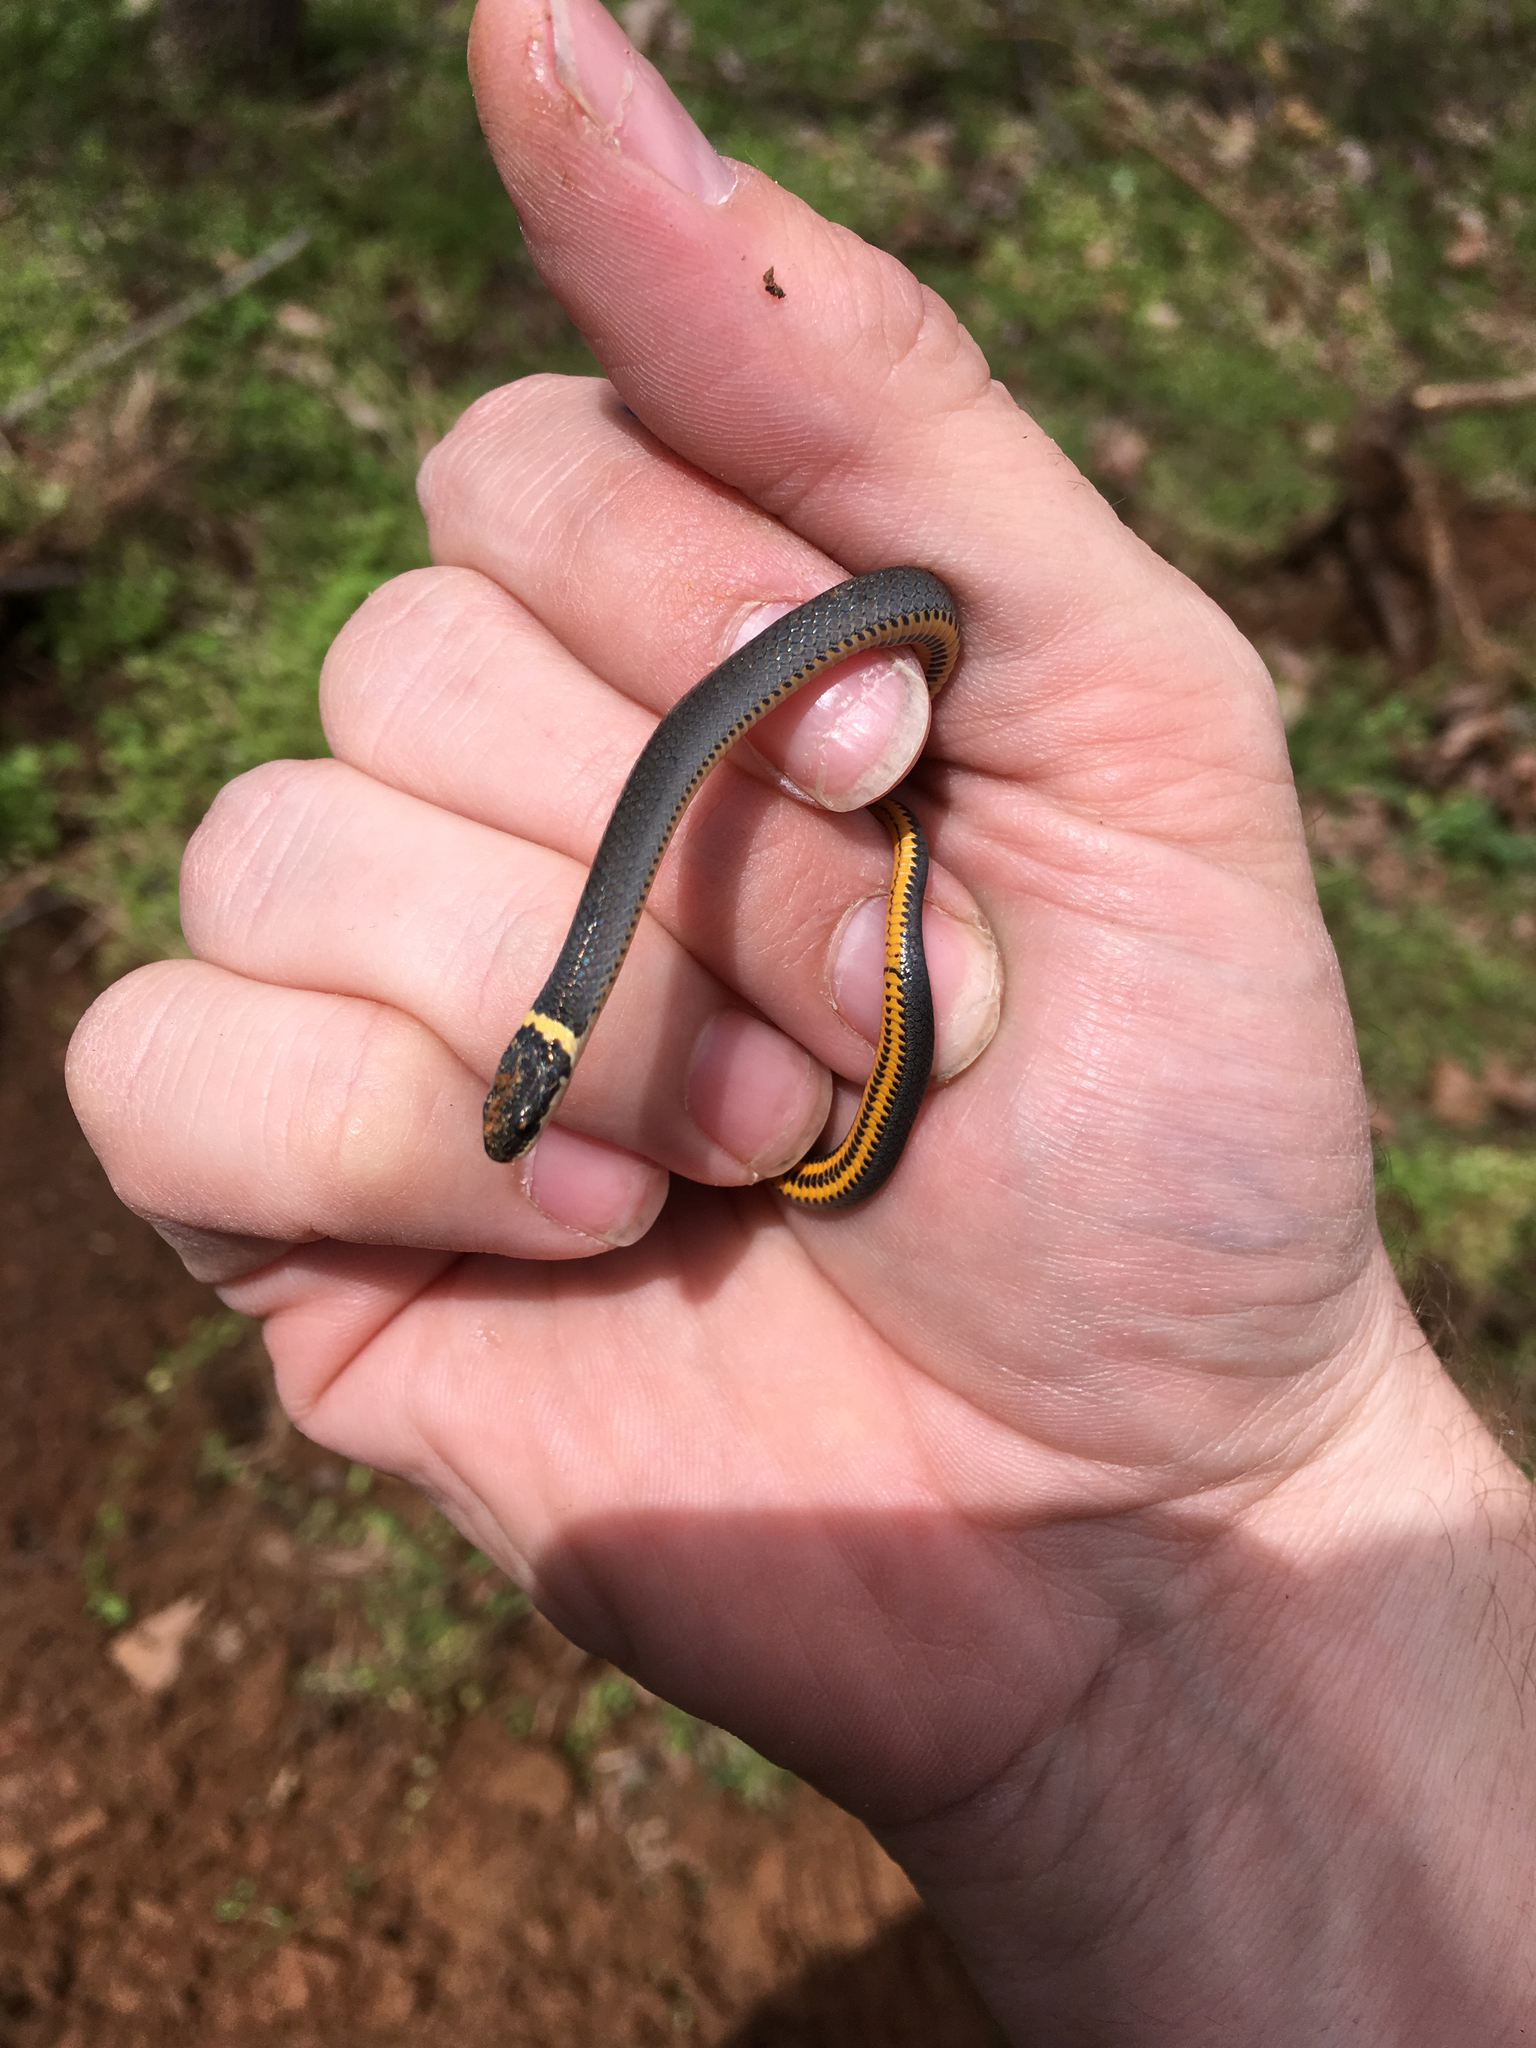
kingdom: Animalia
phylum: Chordata
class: Squamata
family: Colubridae
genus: Diadophis
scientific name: Diadophis punctatus
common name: Ringneck snake
